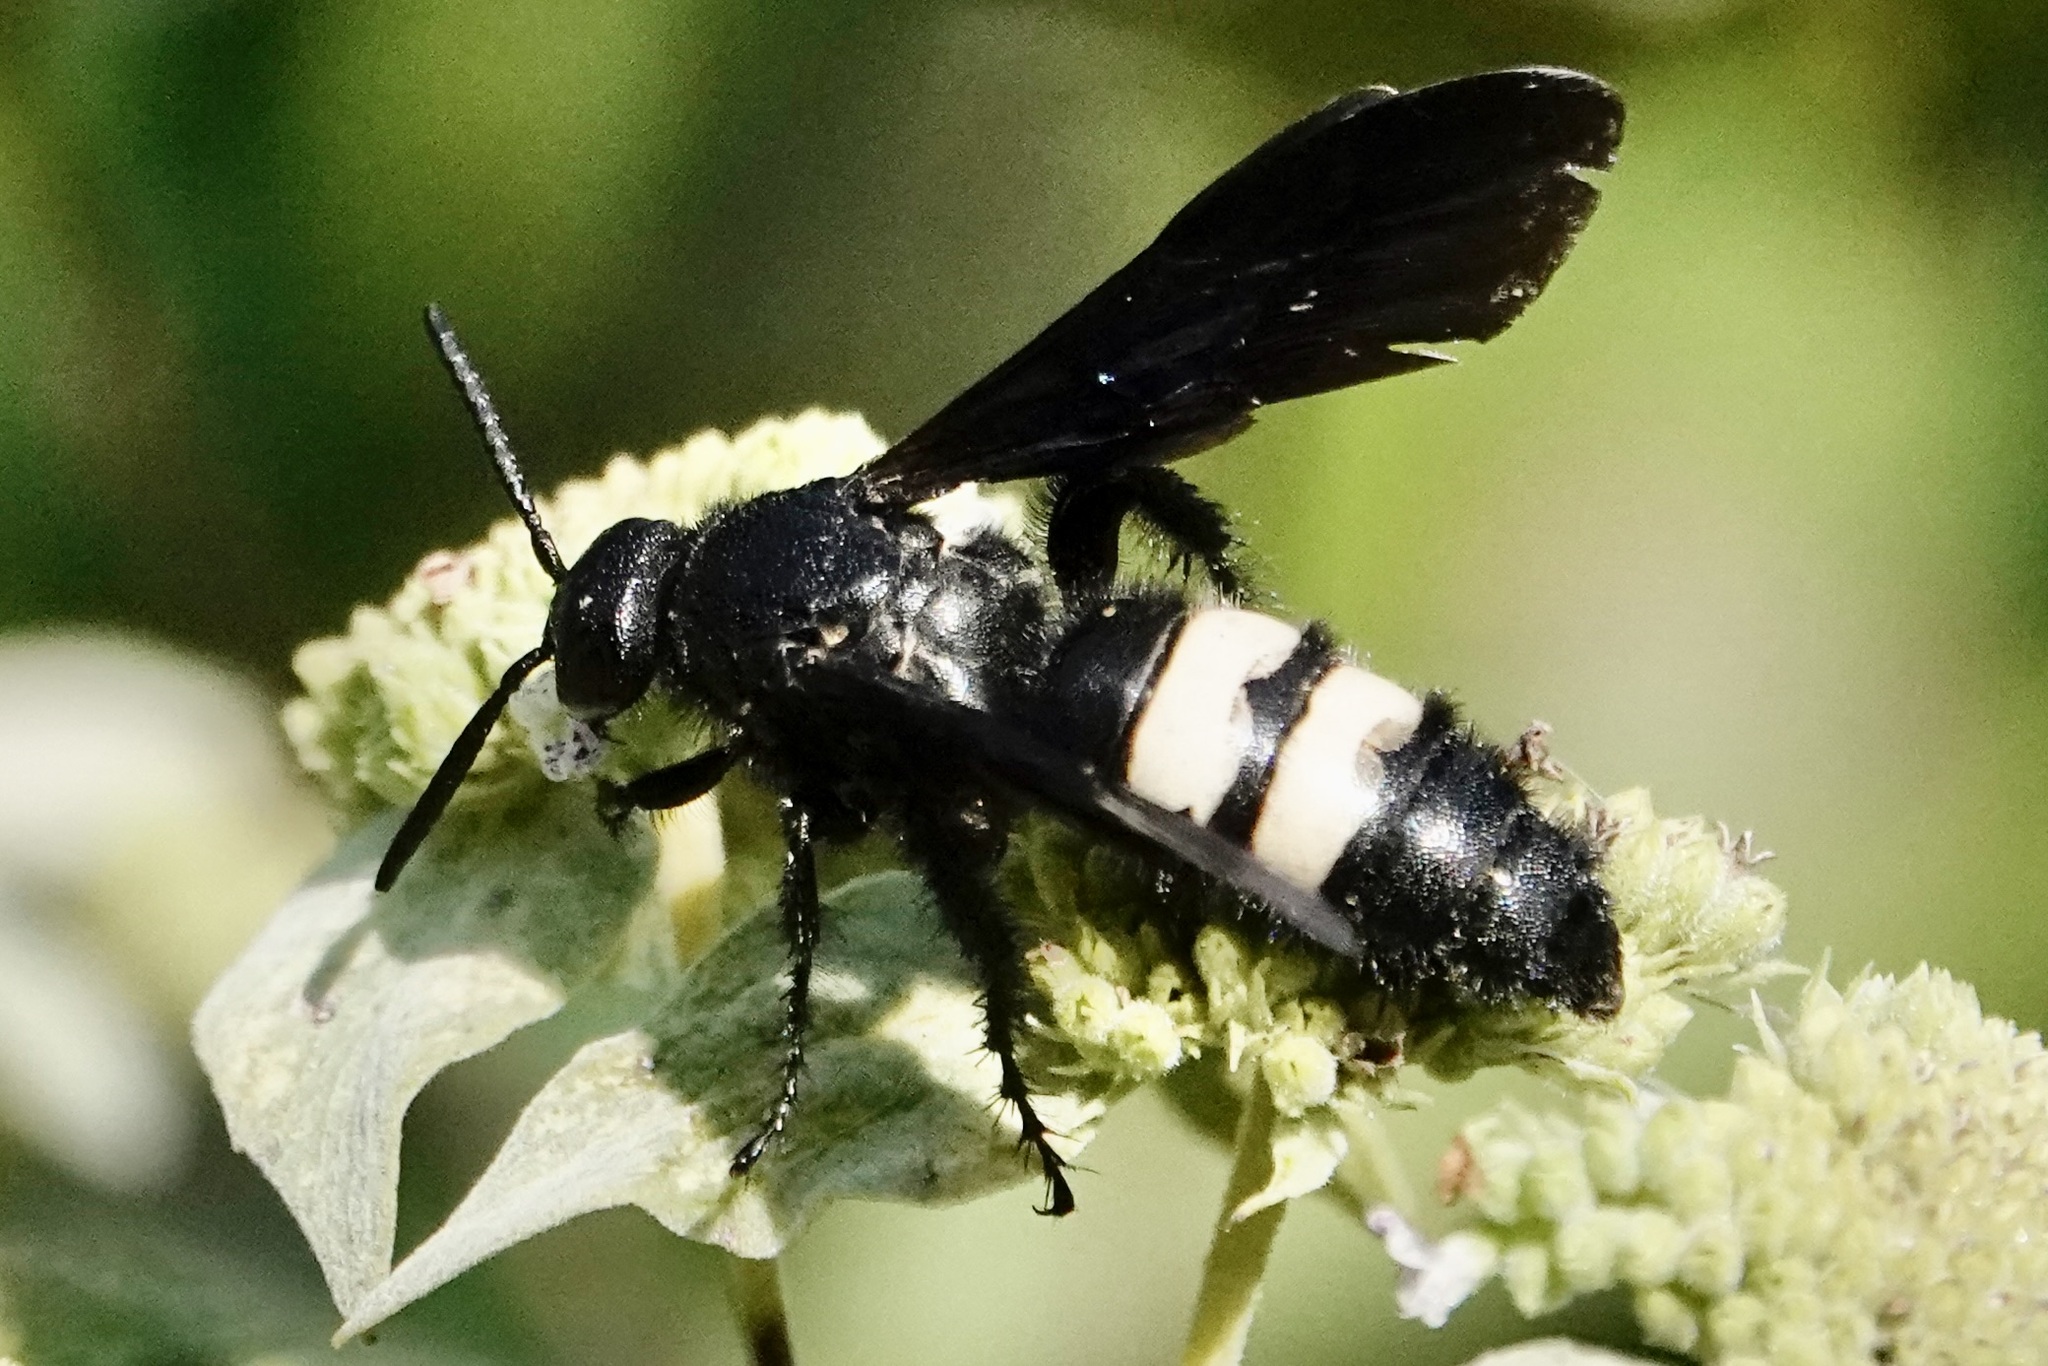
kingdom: Animalia
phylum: Arthropoda
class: Insecta
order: Hymenoptera
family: Scoliidae
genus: Scolia
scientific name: Scolia bicincta
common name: Double-banded scoliid wasp
